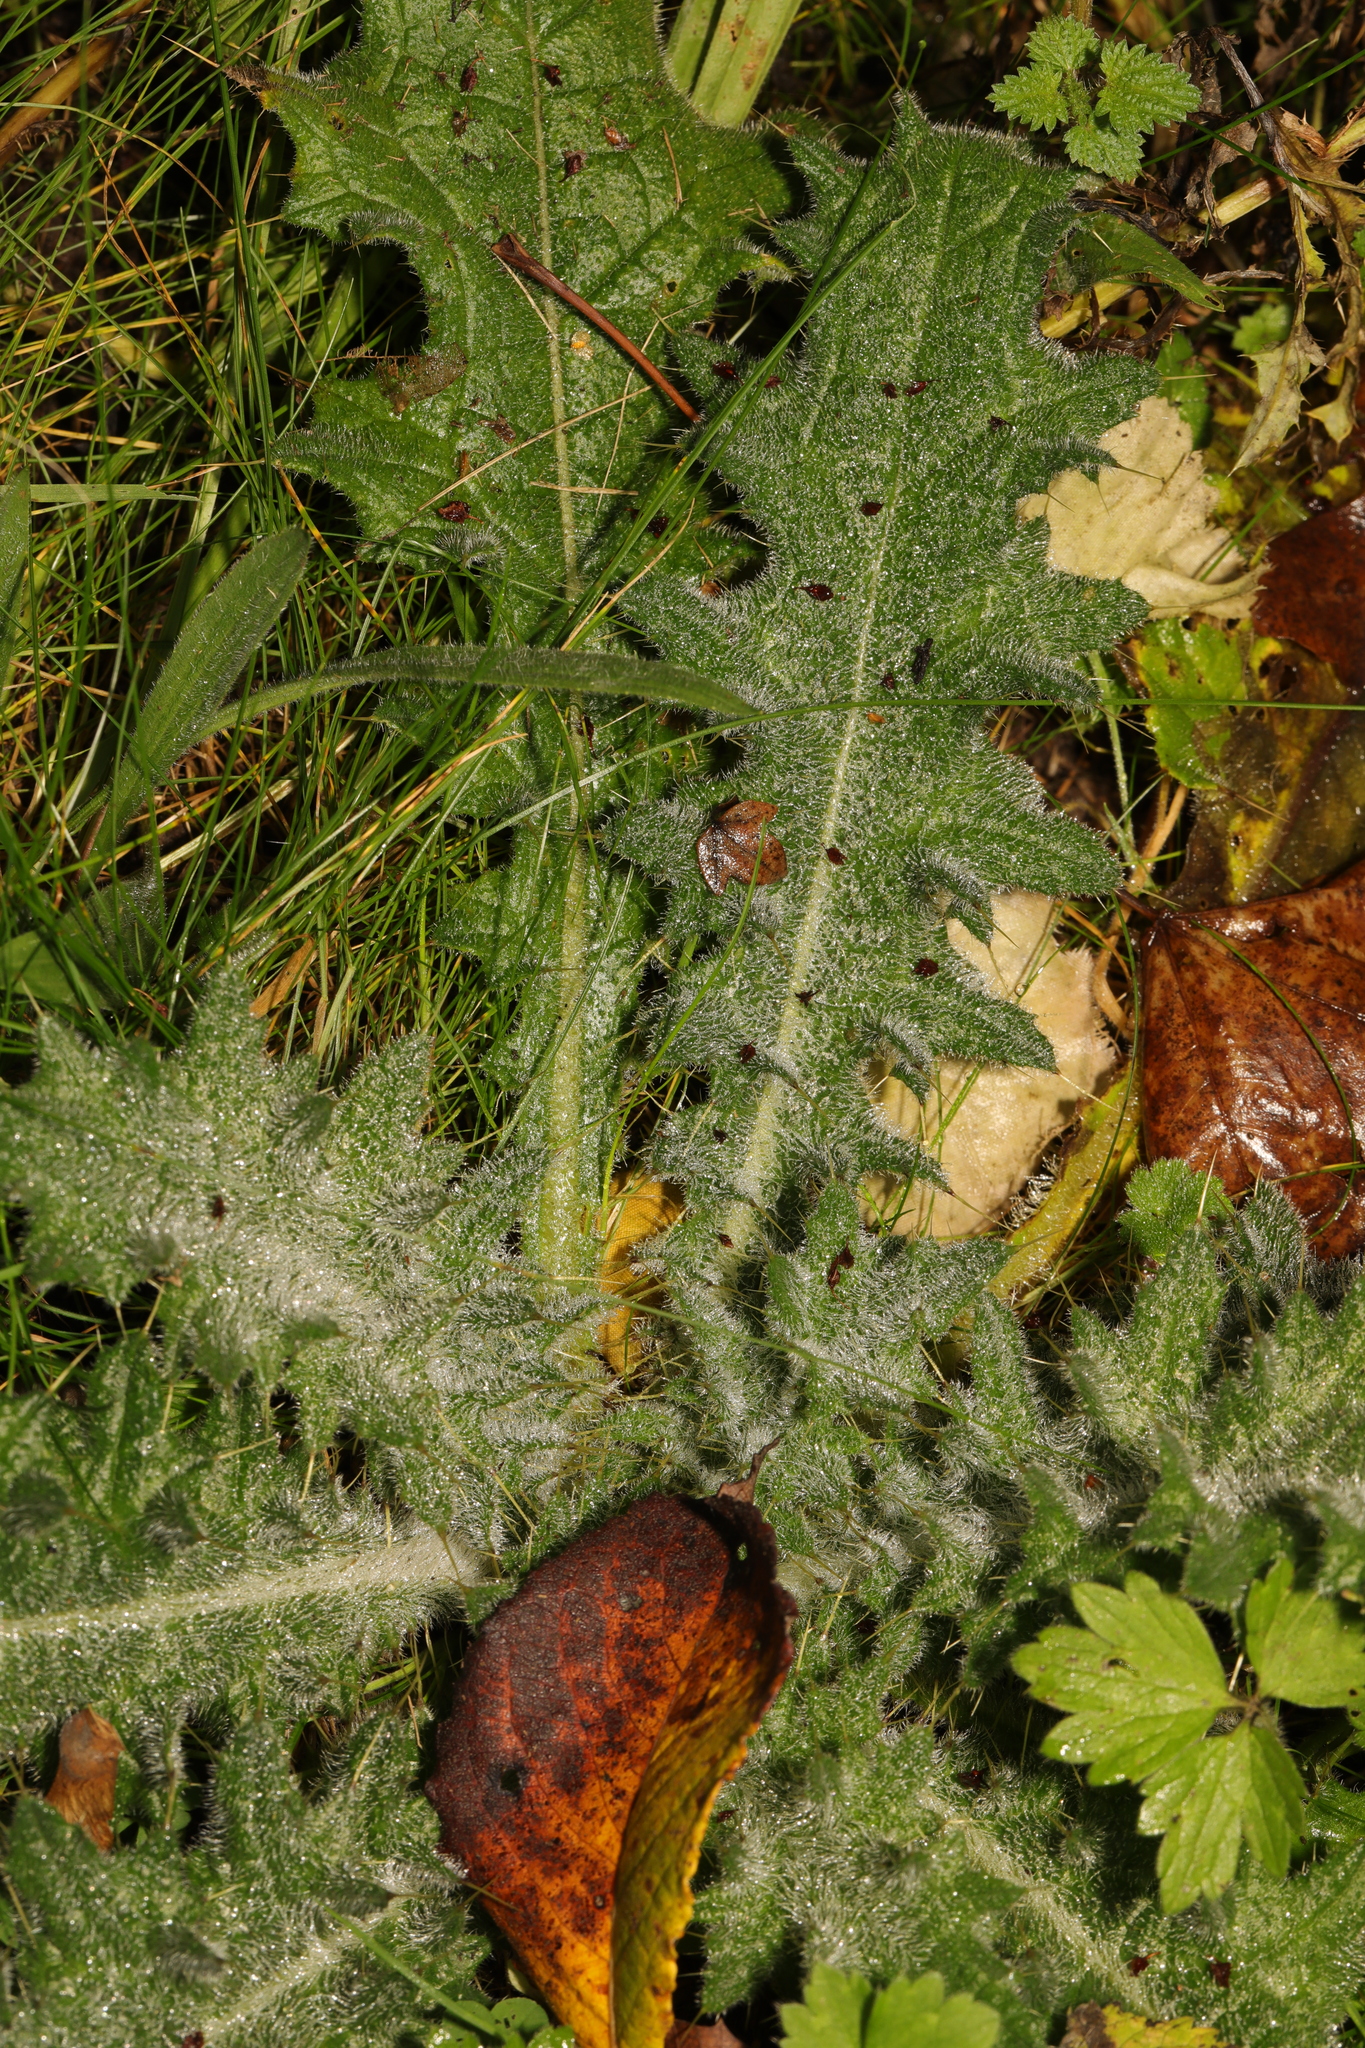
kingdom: Plantae
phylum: Tracheophyta
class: Magnoliopsida
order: Asterales
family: Asteraceae
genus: Cirsium
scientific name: Cirsium vulgare
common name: Bull thistle
